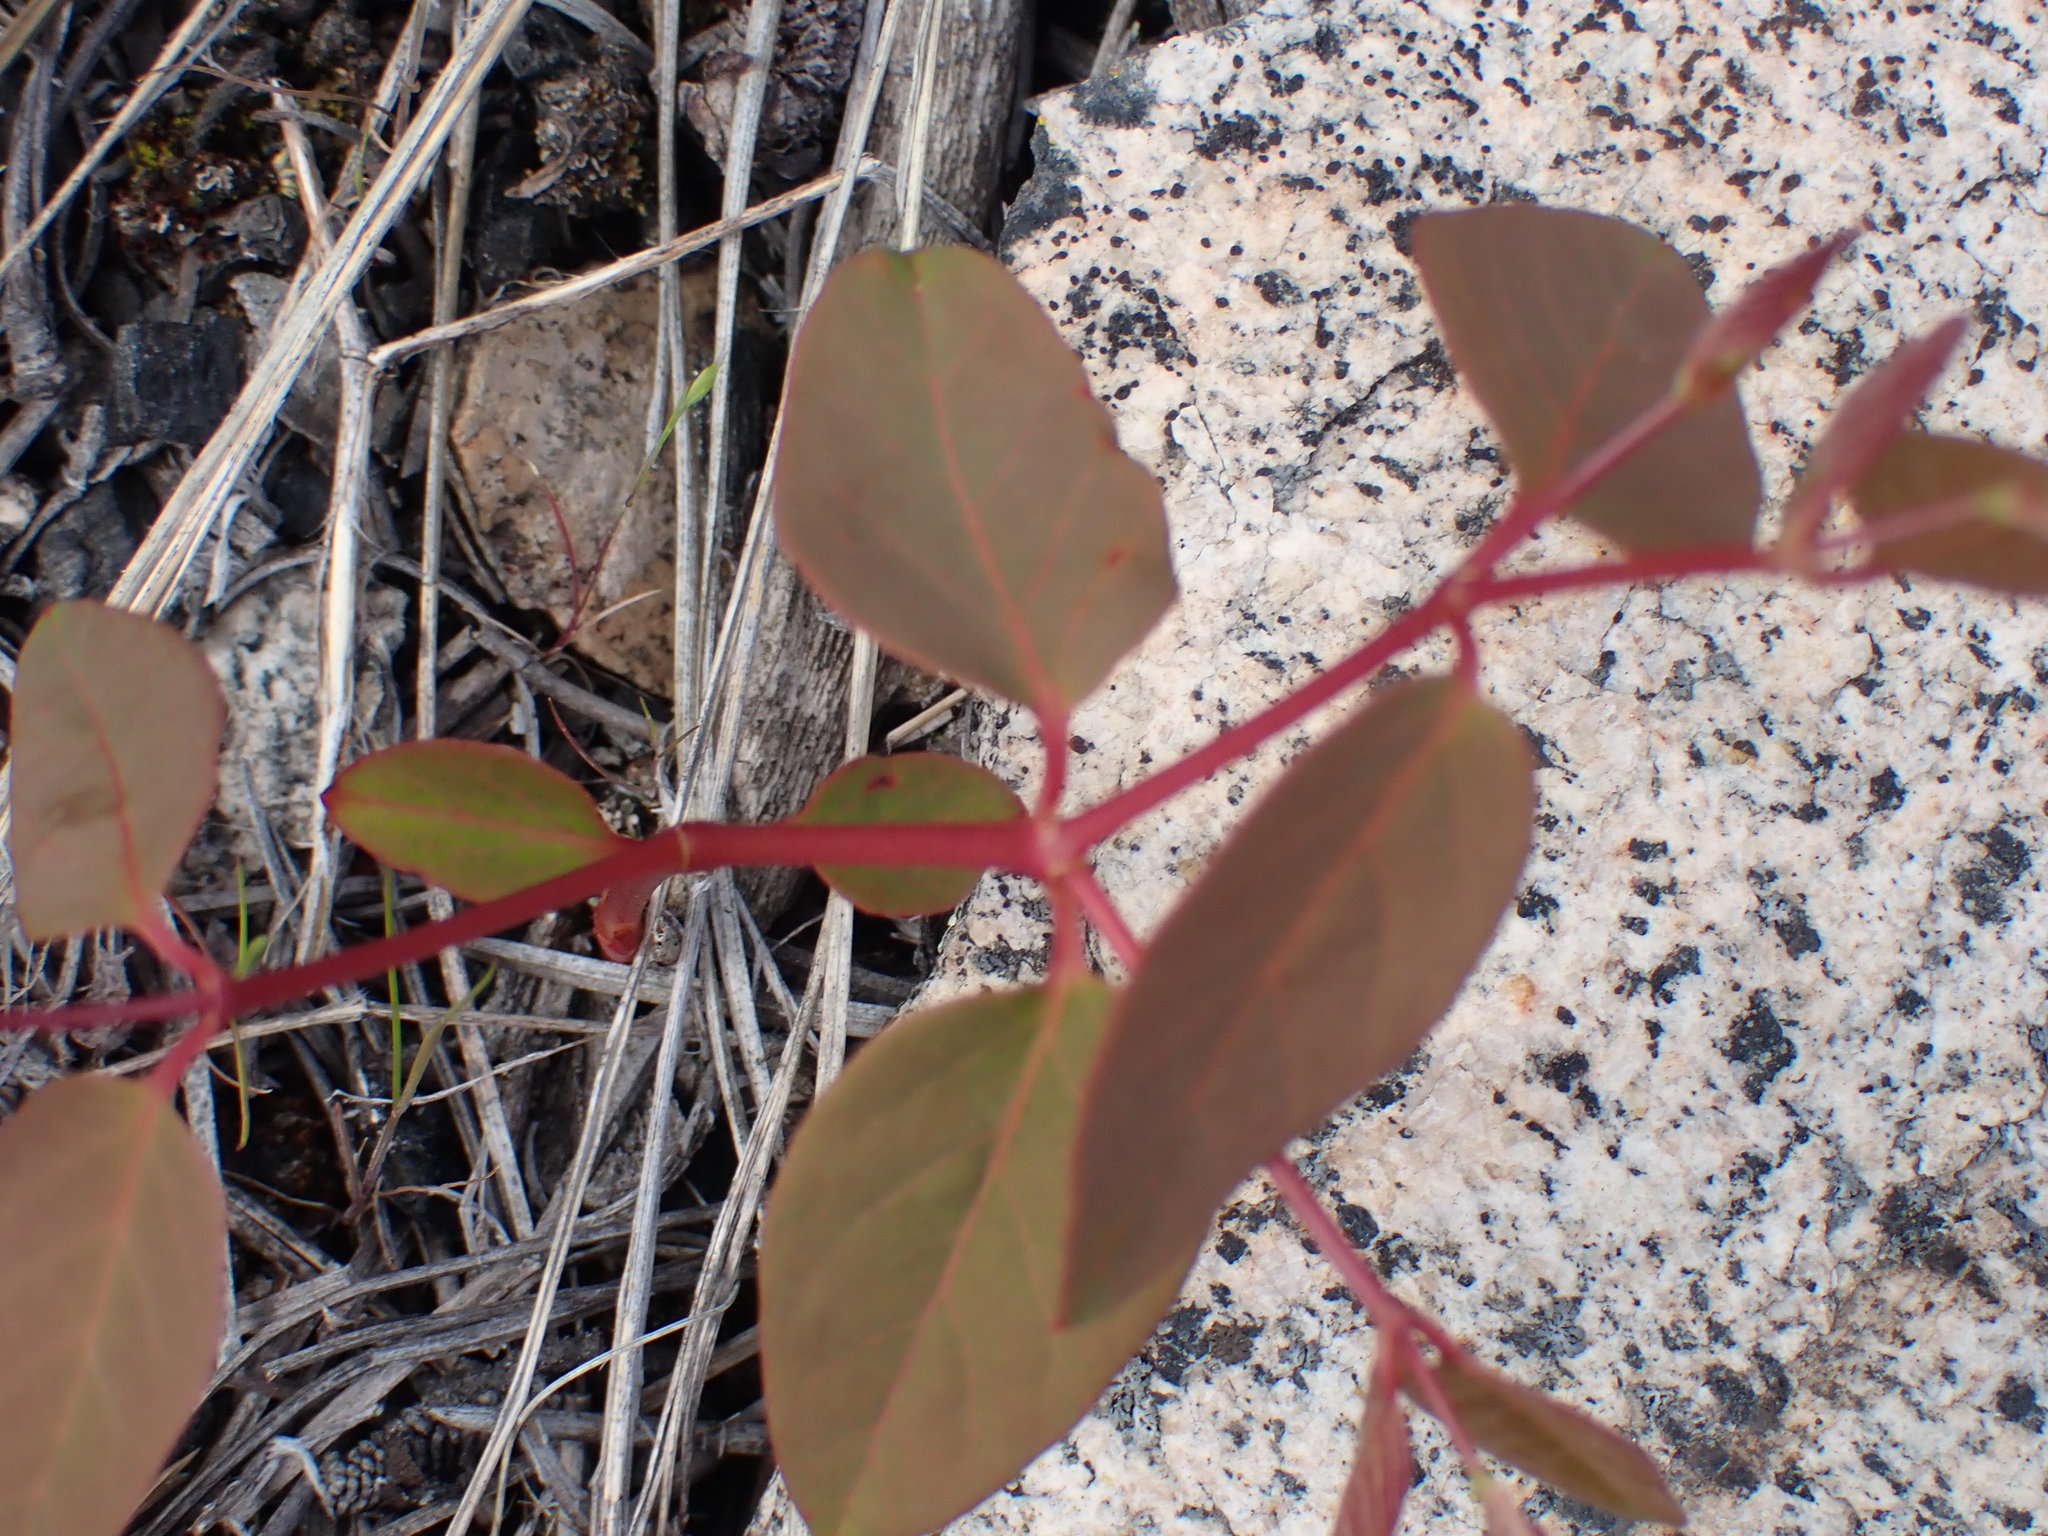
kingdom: Plantae
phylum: Tracheophyta
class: Magnoliopsida
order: Gentianales
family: Apocynaceae
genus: Apocynum
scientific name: Apocynum androsaemifolium
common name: Spreading dogbane
